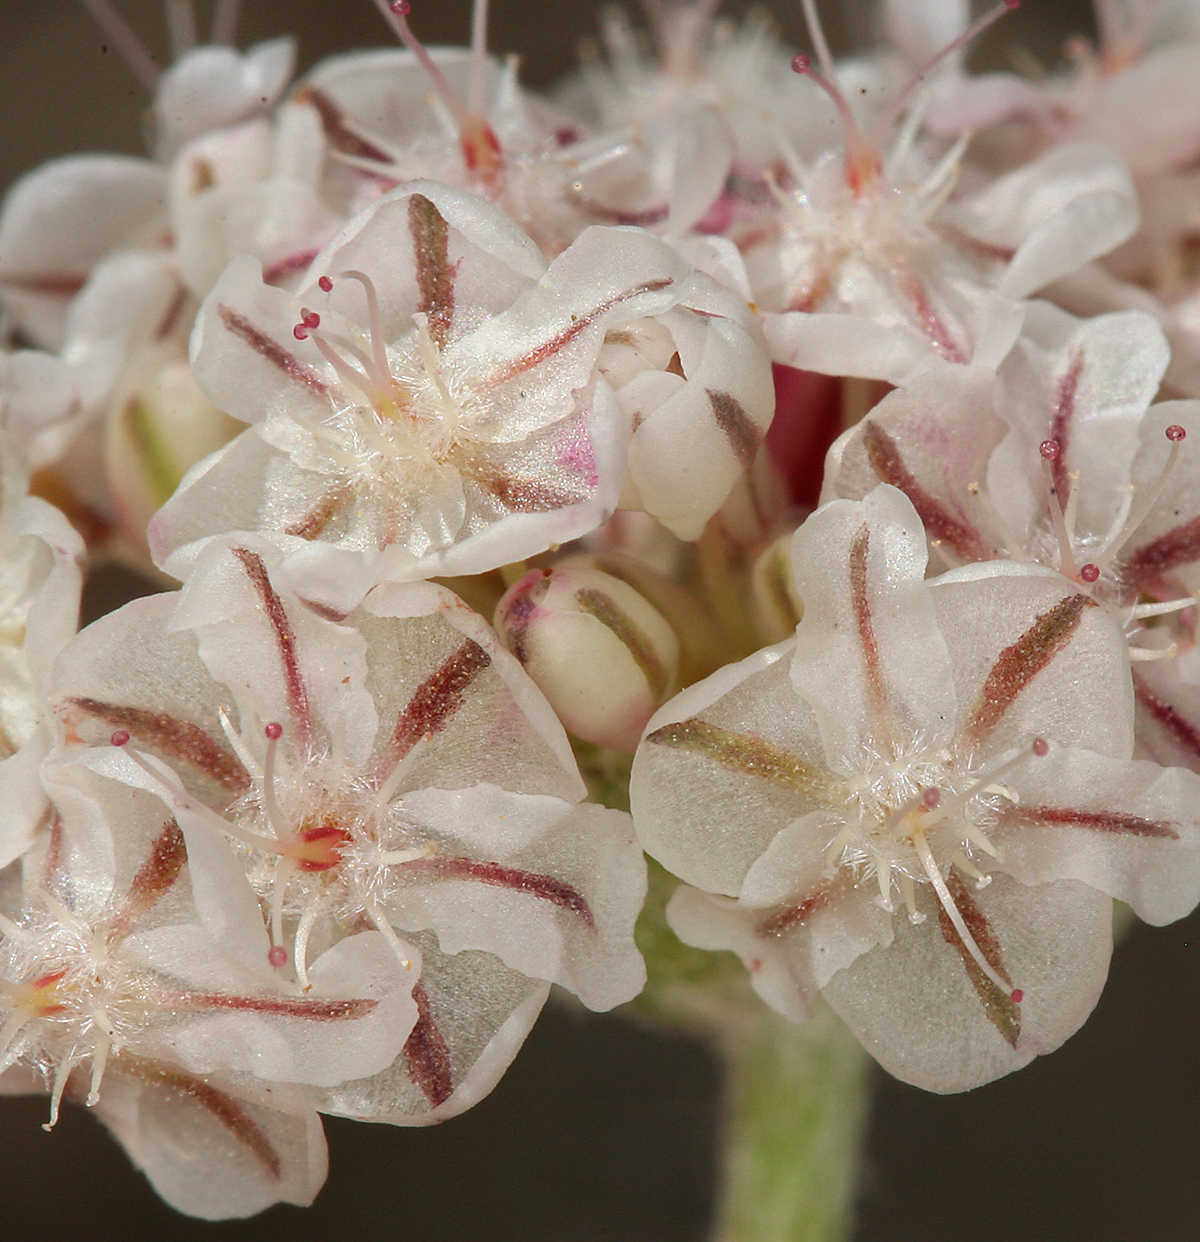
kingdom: Plantae
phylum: Tracheophyta
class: Magnoliopsida
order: Caryophyllales
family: Polygonaceae
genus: Eriogonum
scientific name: Eriogonum ovalifolium
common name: Cushion buckwheat
